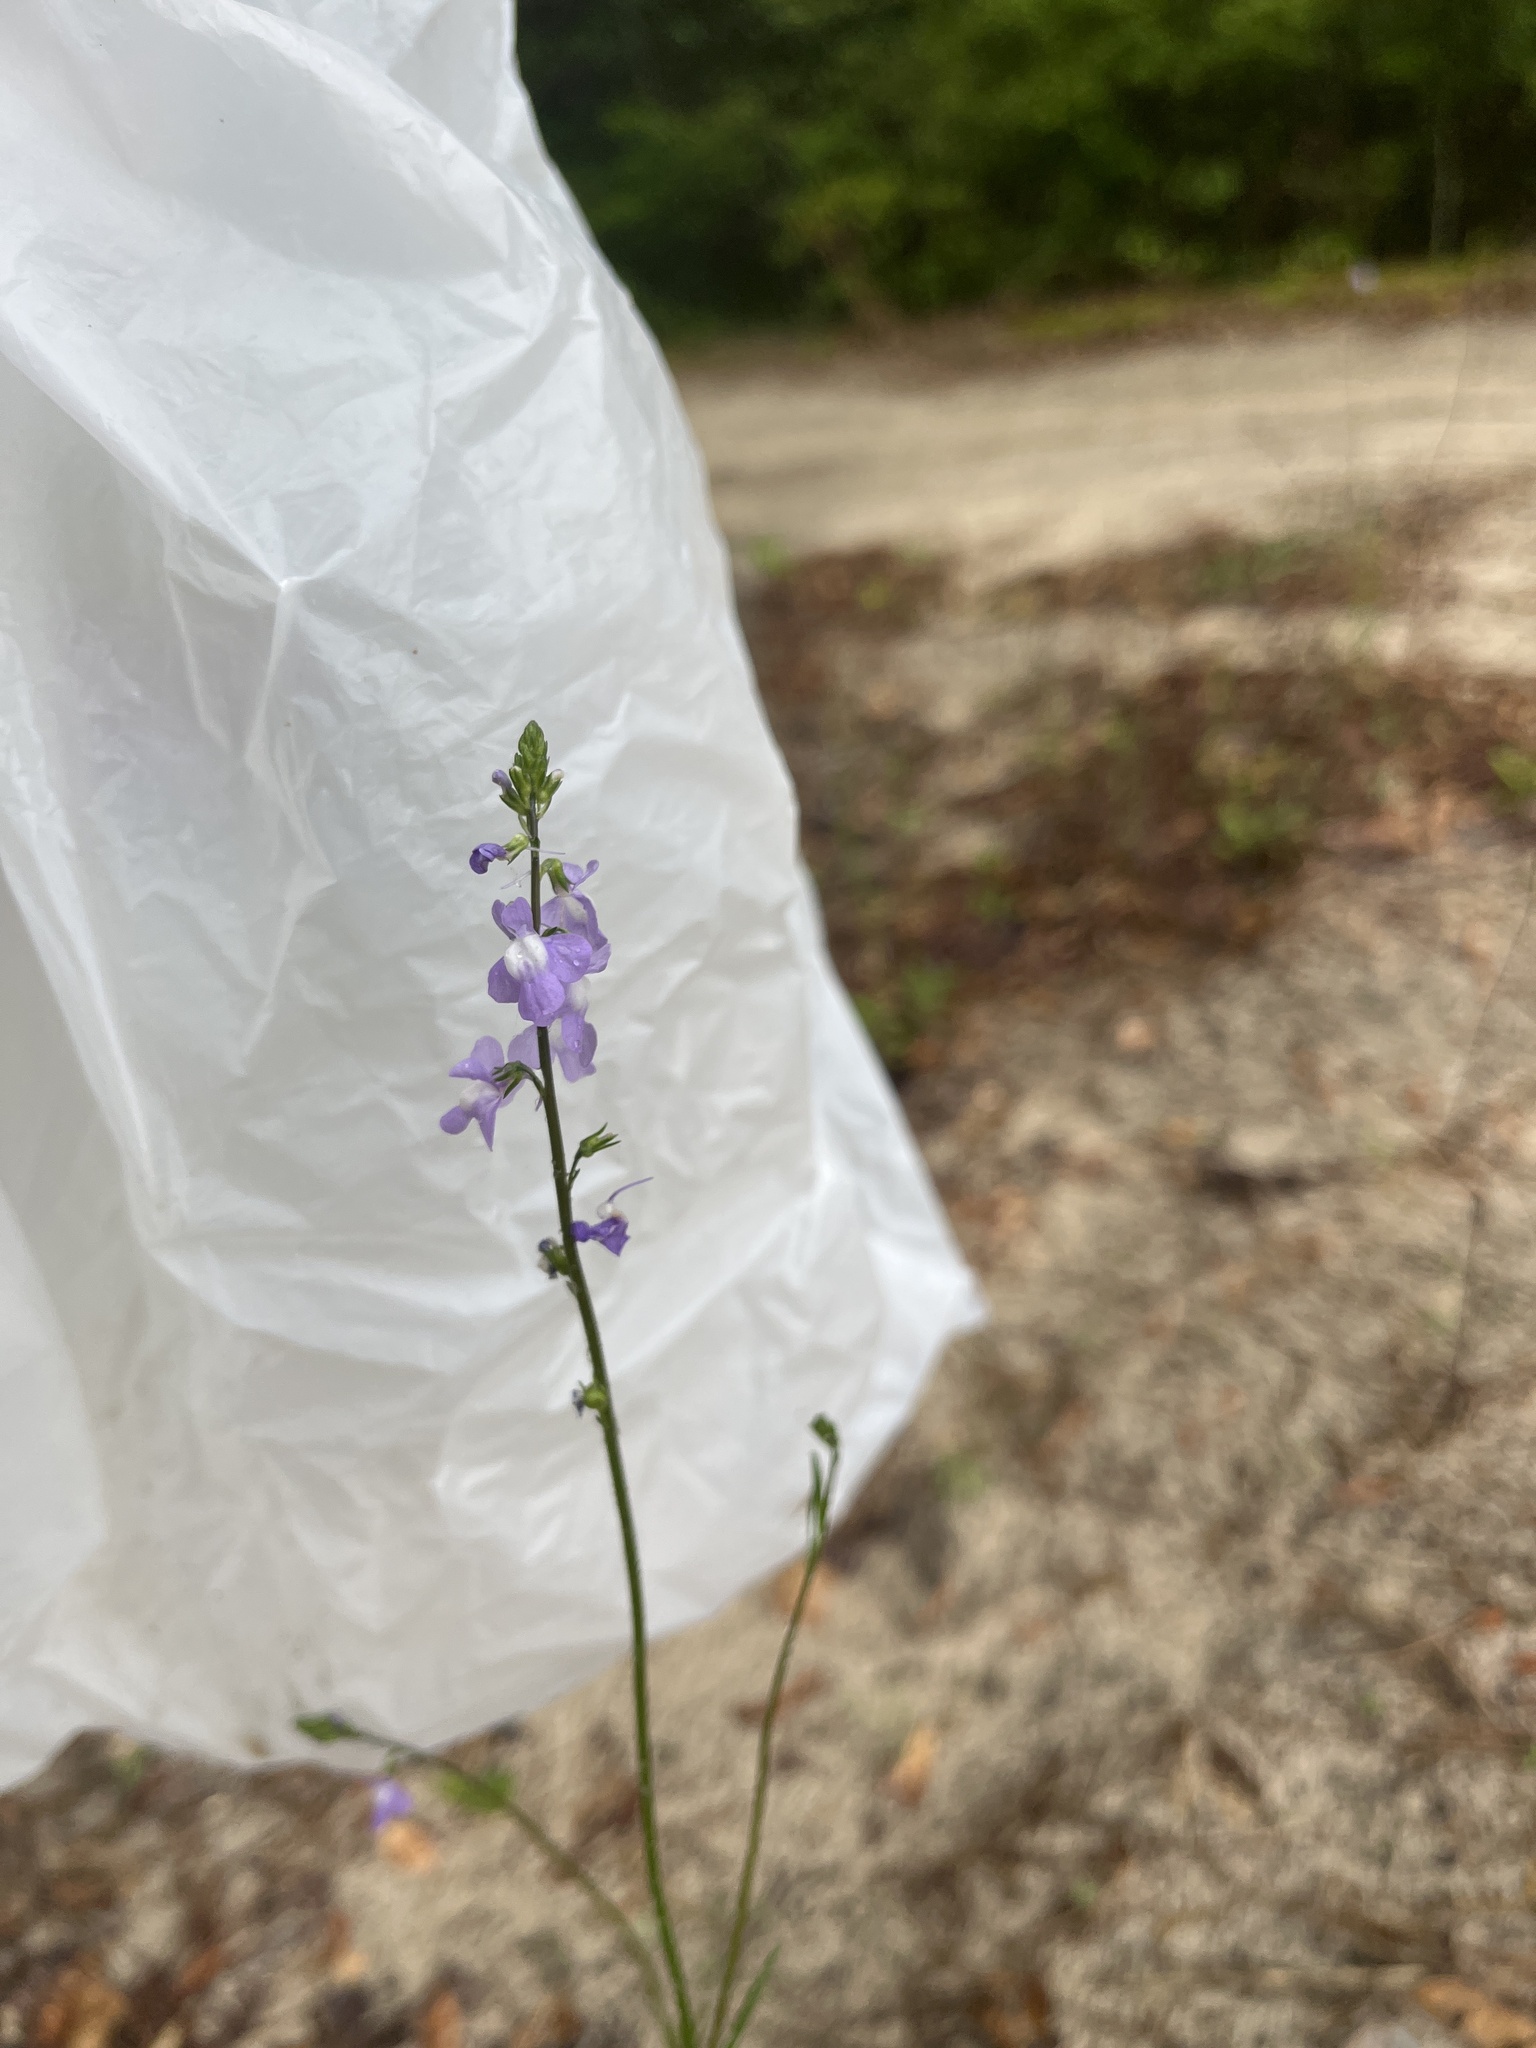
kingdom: Plantae
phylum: Tracheophyta
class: Magnoliopsida
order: Lamiales
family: Plantaginaceae
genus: Nuttallanthus
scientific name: Nuttallanthus
